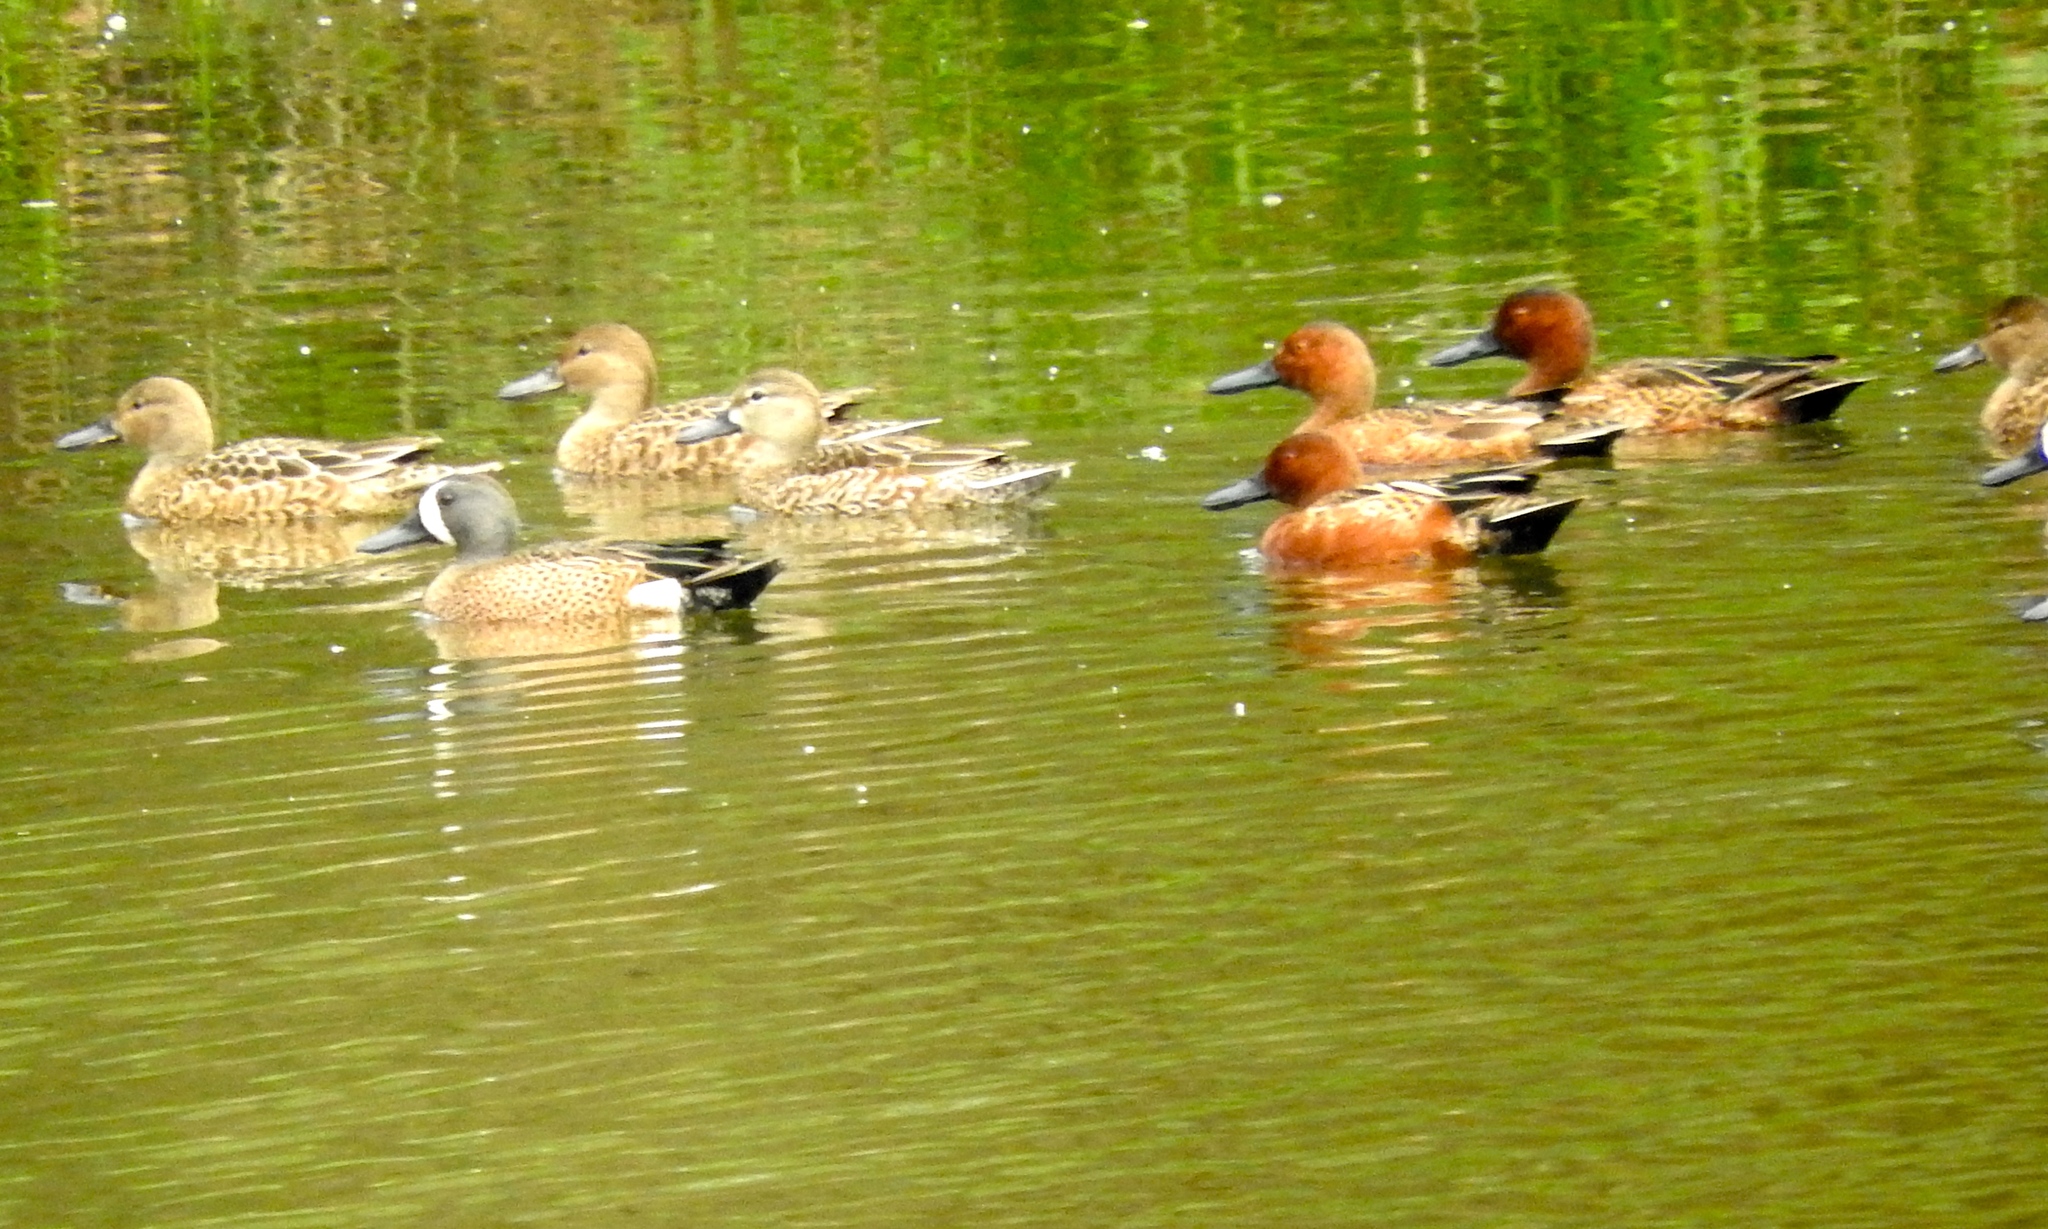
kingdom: Animalia
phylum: Chordata
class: Aves
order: Anseriformes
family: Anatidae
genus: Spatula
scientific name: Spatula discors
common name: Blue-winged teal
